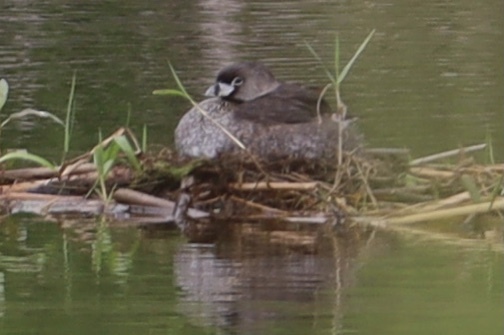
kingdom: Animalia
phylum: Chordata
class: Aves
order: Podicipediformes
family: Podicipedidae
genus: Podilymbus
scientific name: Podilymbus podiceps
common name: Pied-billed grebe
